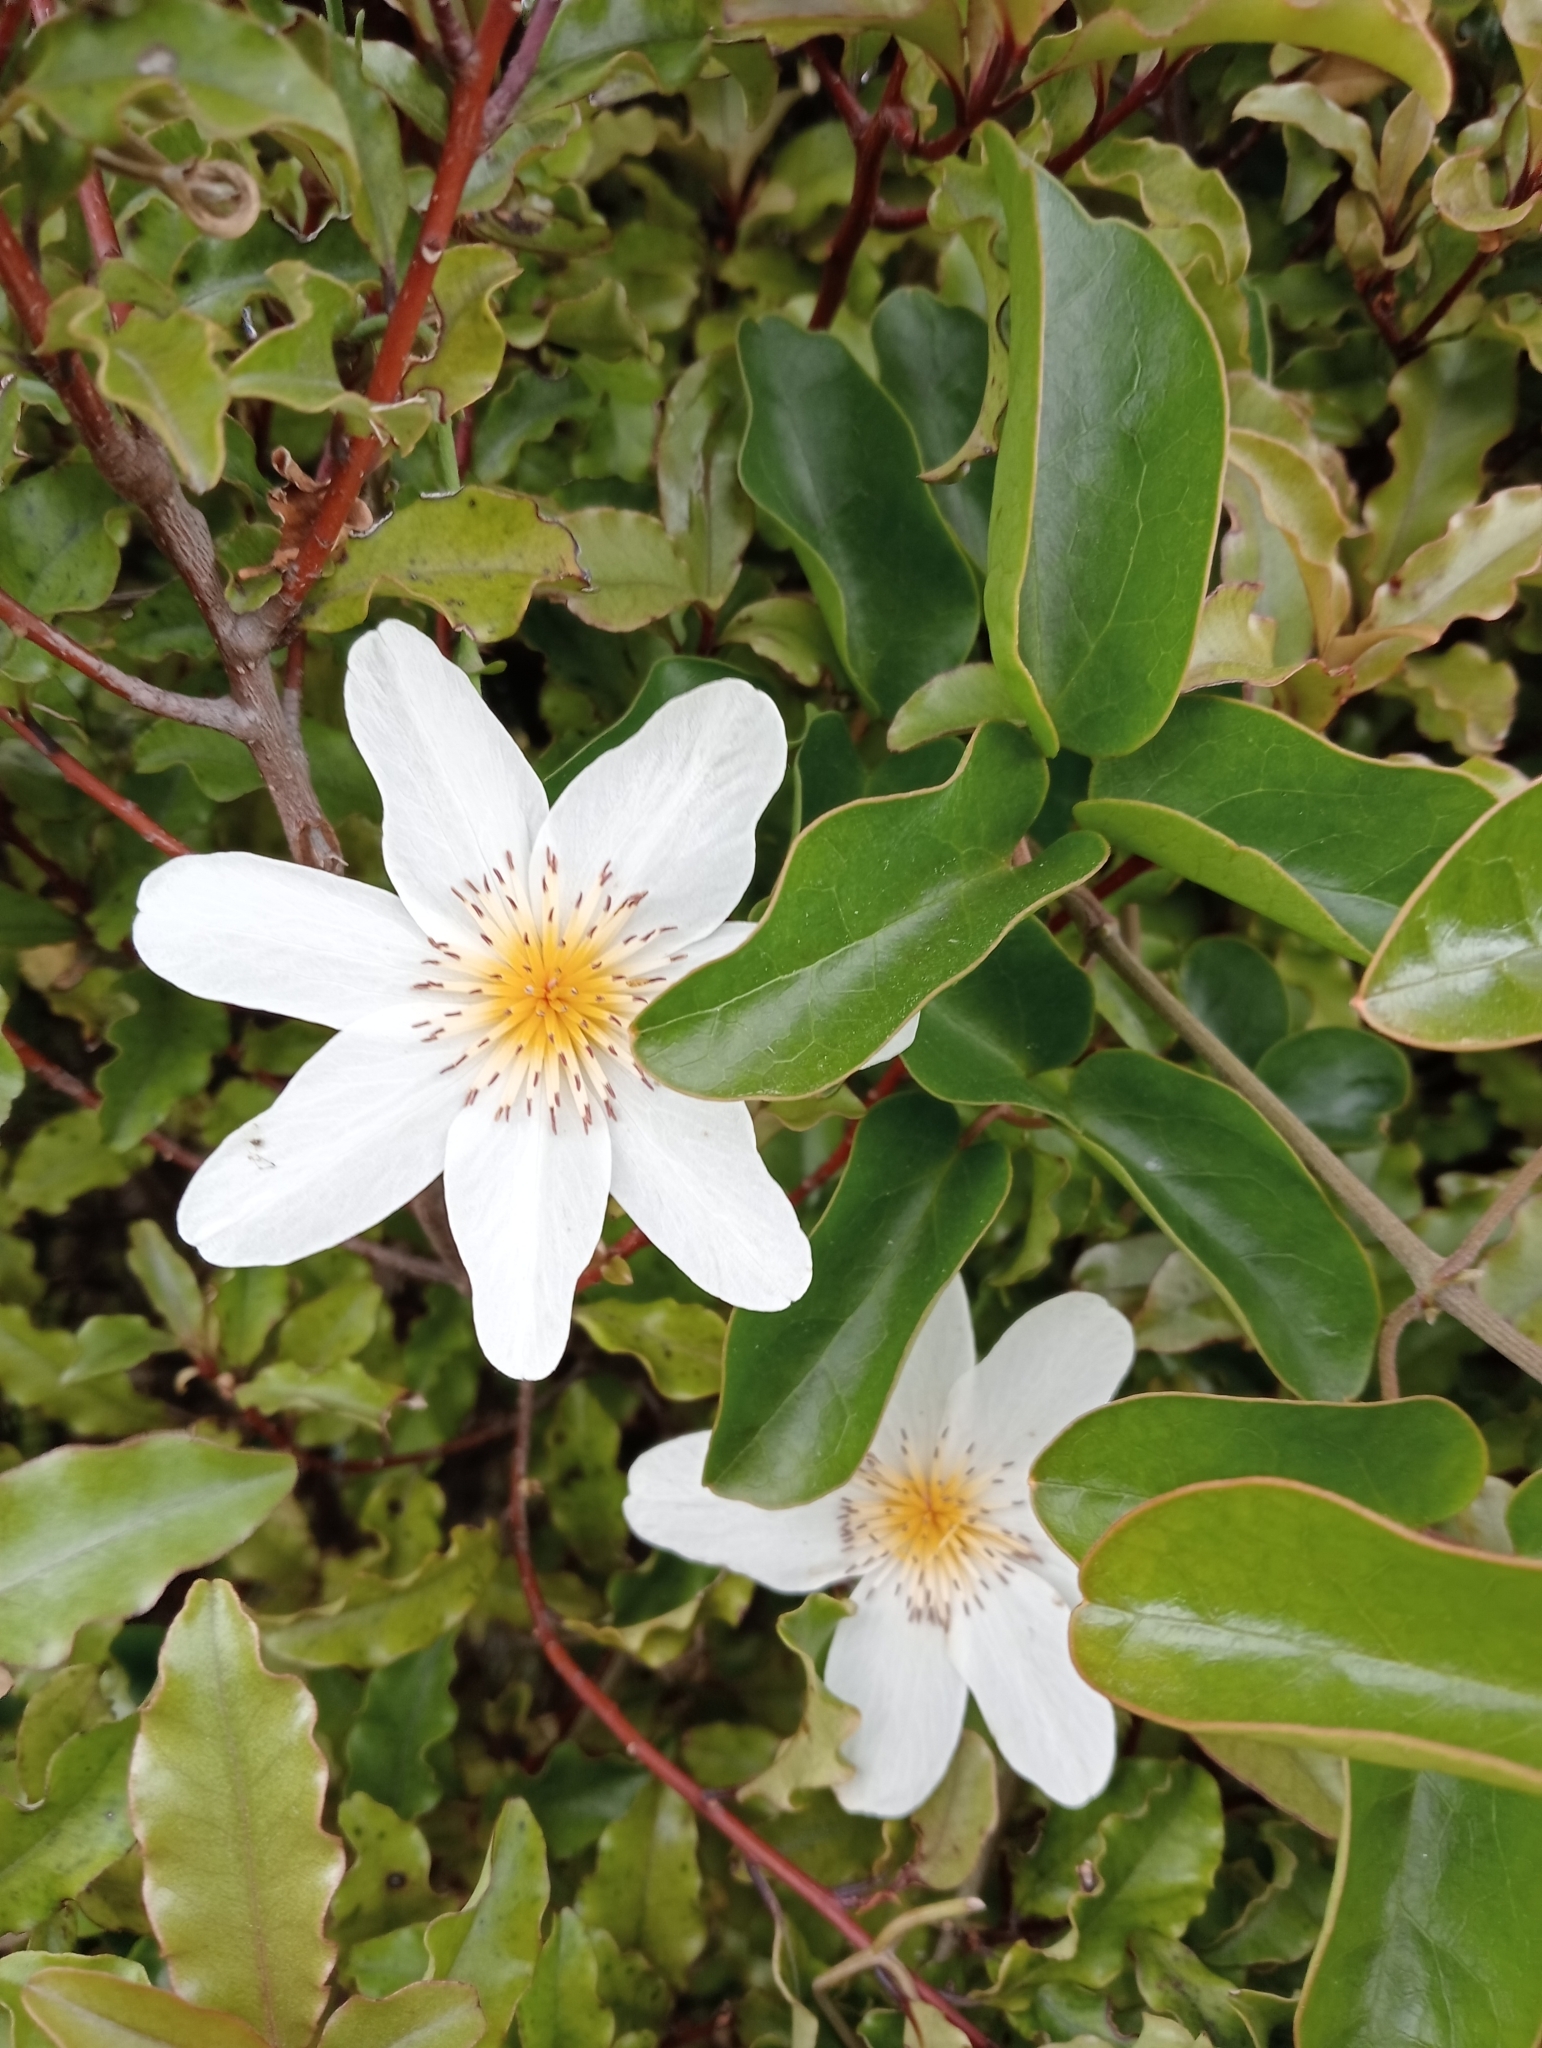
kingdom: Plantae
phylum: Tracheophyta
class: Magnoliopsida
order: Ranunculales
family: Ranunculaceae
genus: Clematis
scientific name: Clematis paniculata
